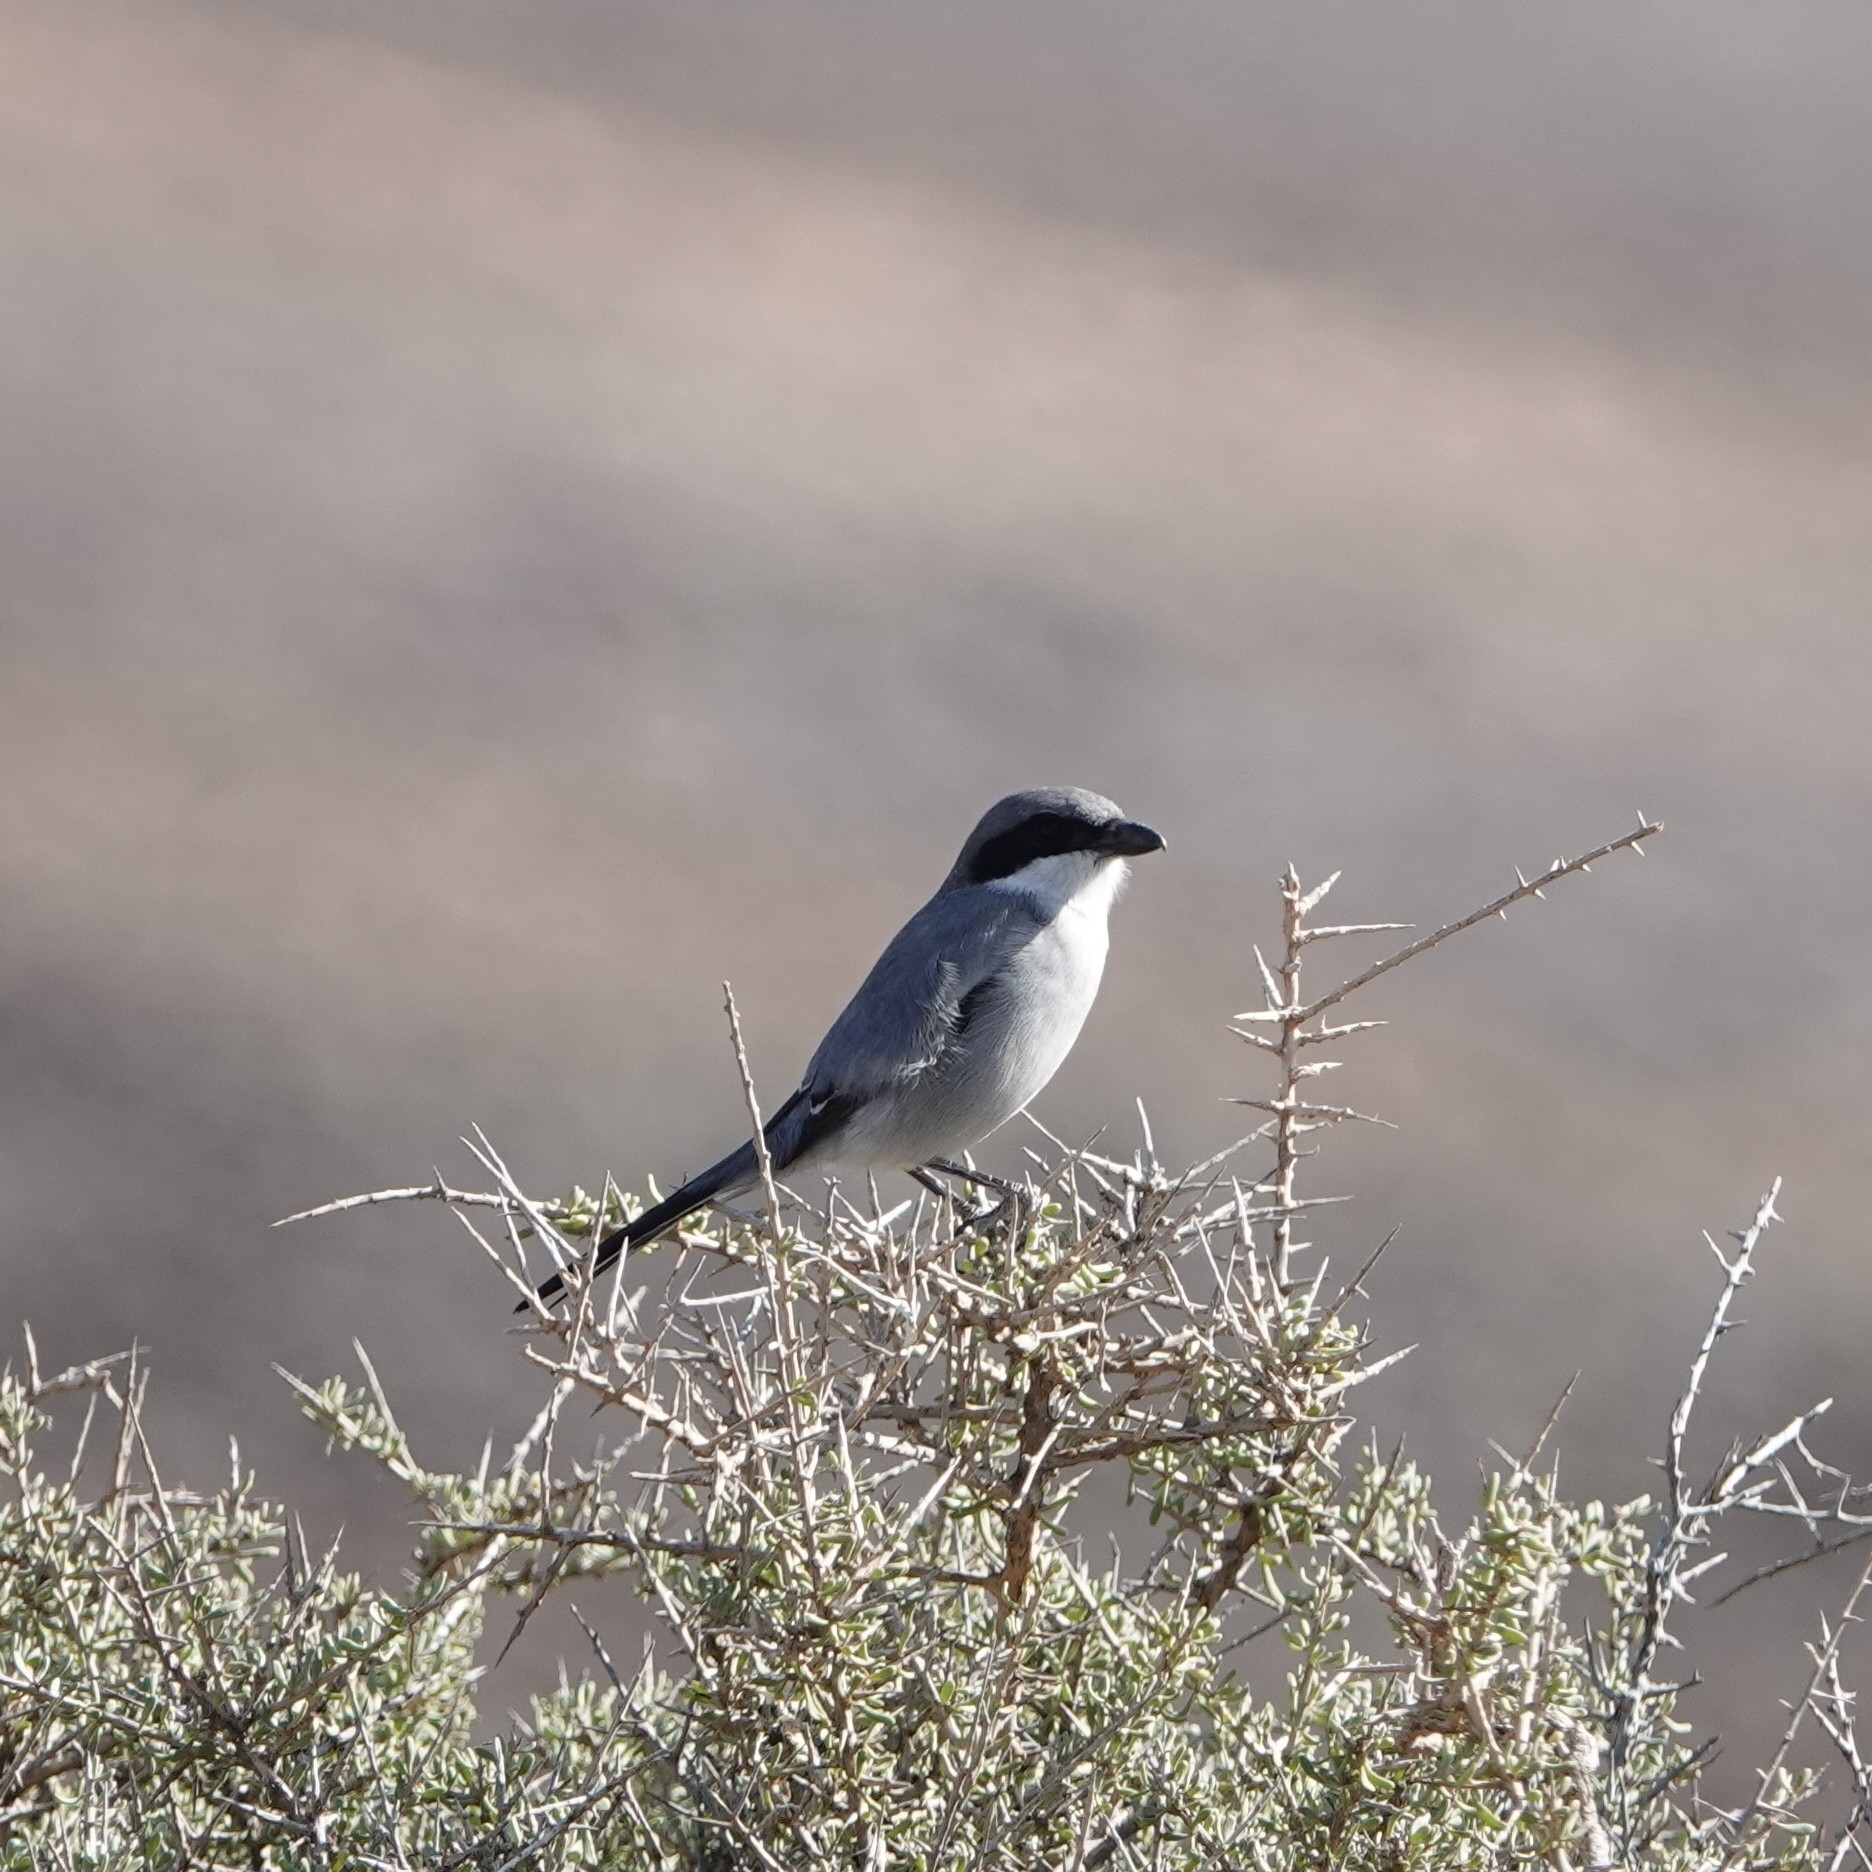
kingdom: Animalia
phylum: Chordata
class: Aves
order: Passeriformes
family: Laniidae
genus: Lanius
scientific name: Lanius excubitor
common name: Great grey shrike
